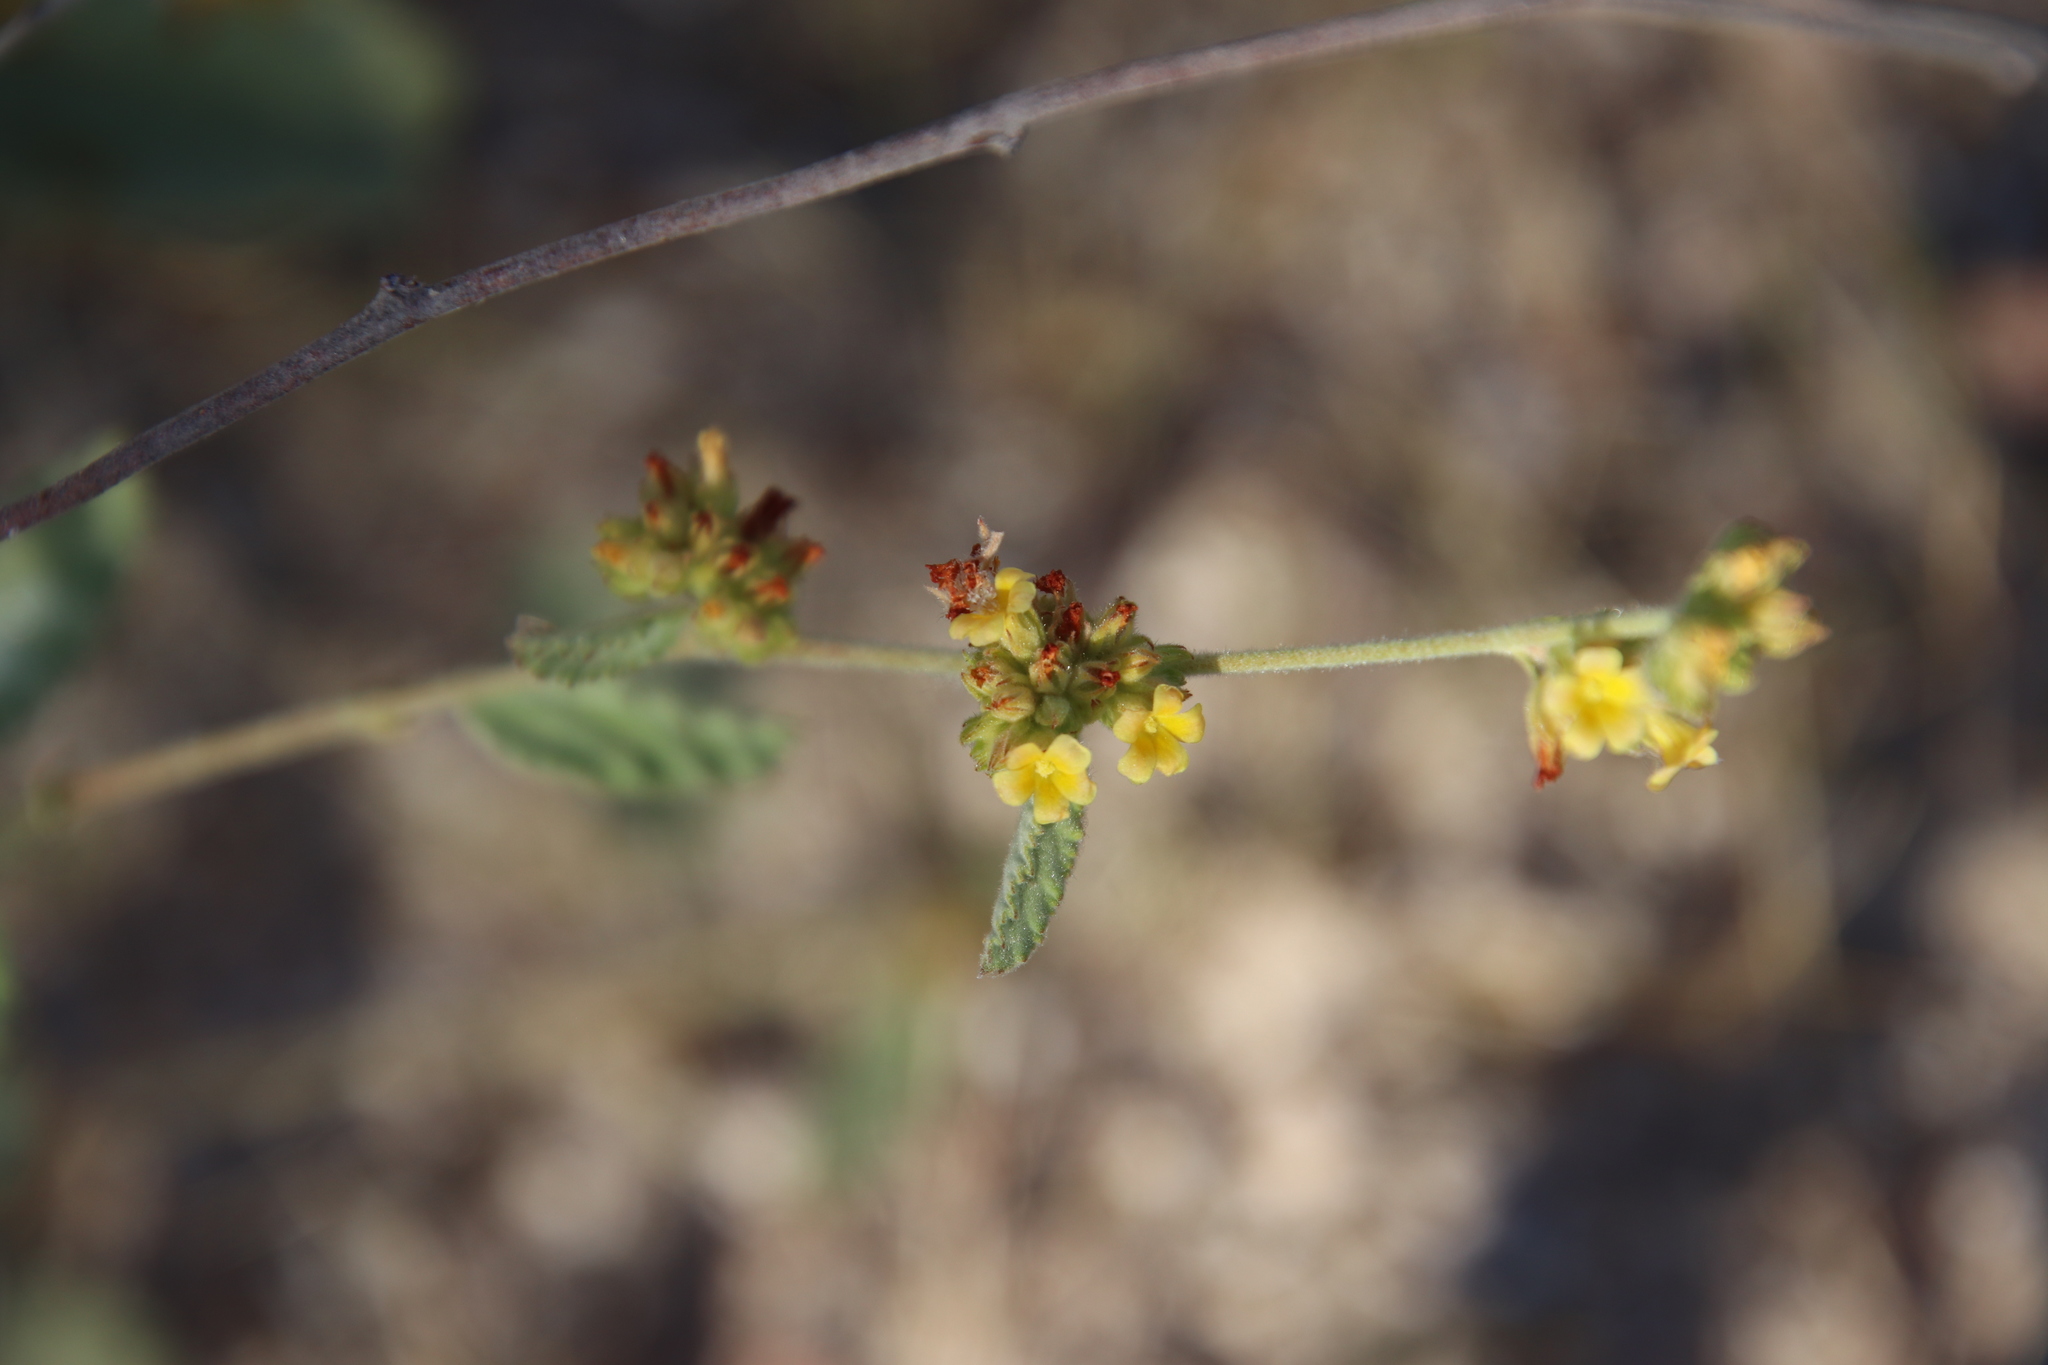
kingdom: Plantae
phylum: Tracheophyta
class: Magnoliopsida
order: Malvales
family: Malvaceae
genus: Waltheria
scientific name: Waltheria indica
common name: Leather-coat
